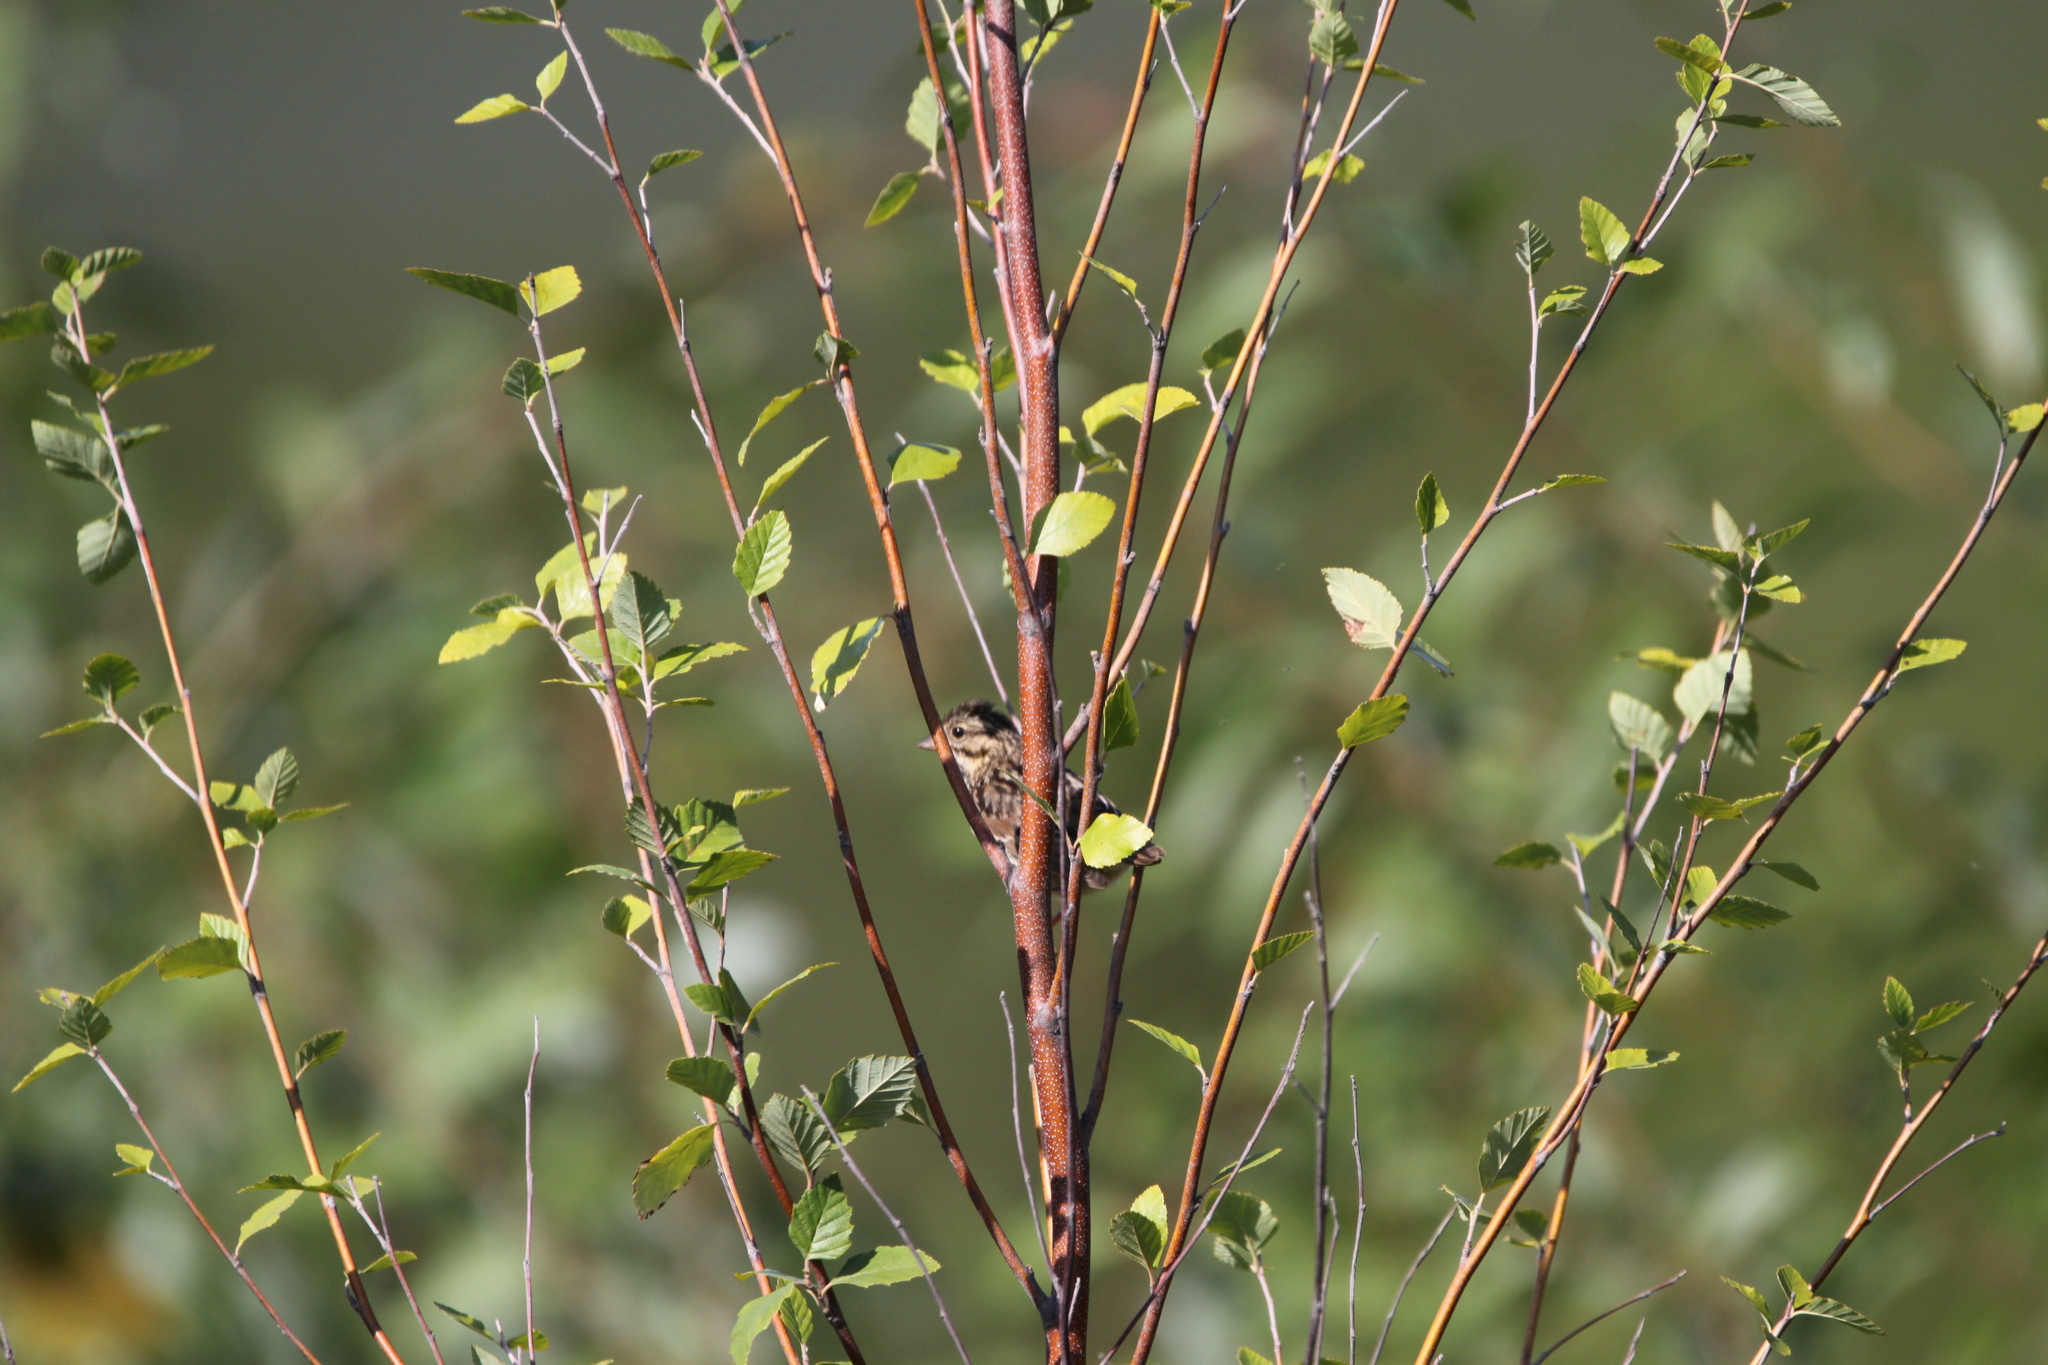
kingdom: Animalia
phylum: Chordata
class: Aves
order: Passeriformes
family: Passerellidae
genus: Melospiza
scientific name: Melospiza melodia
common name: Song sparrow
